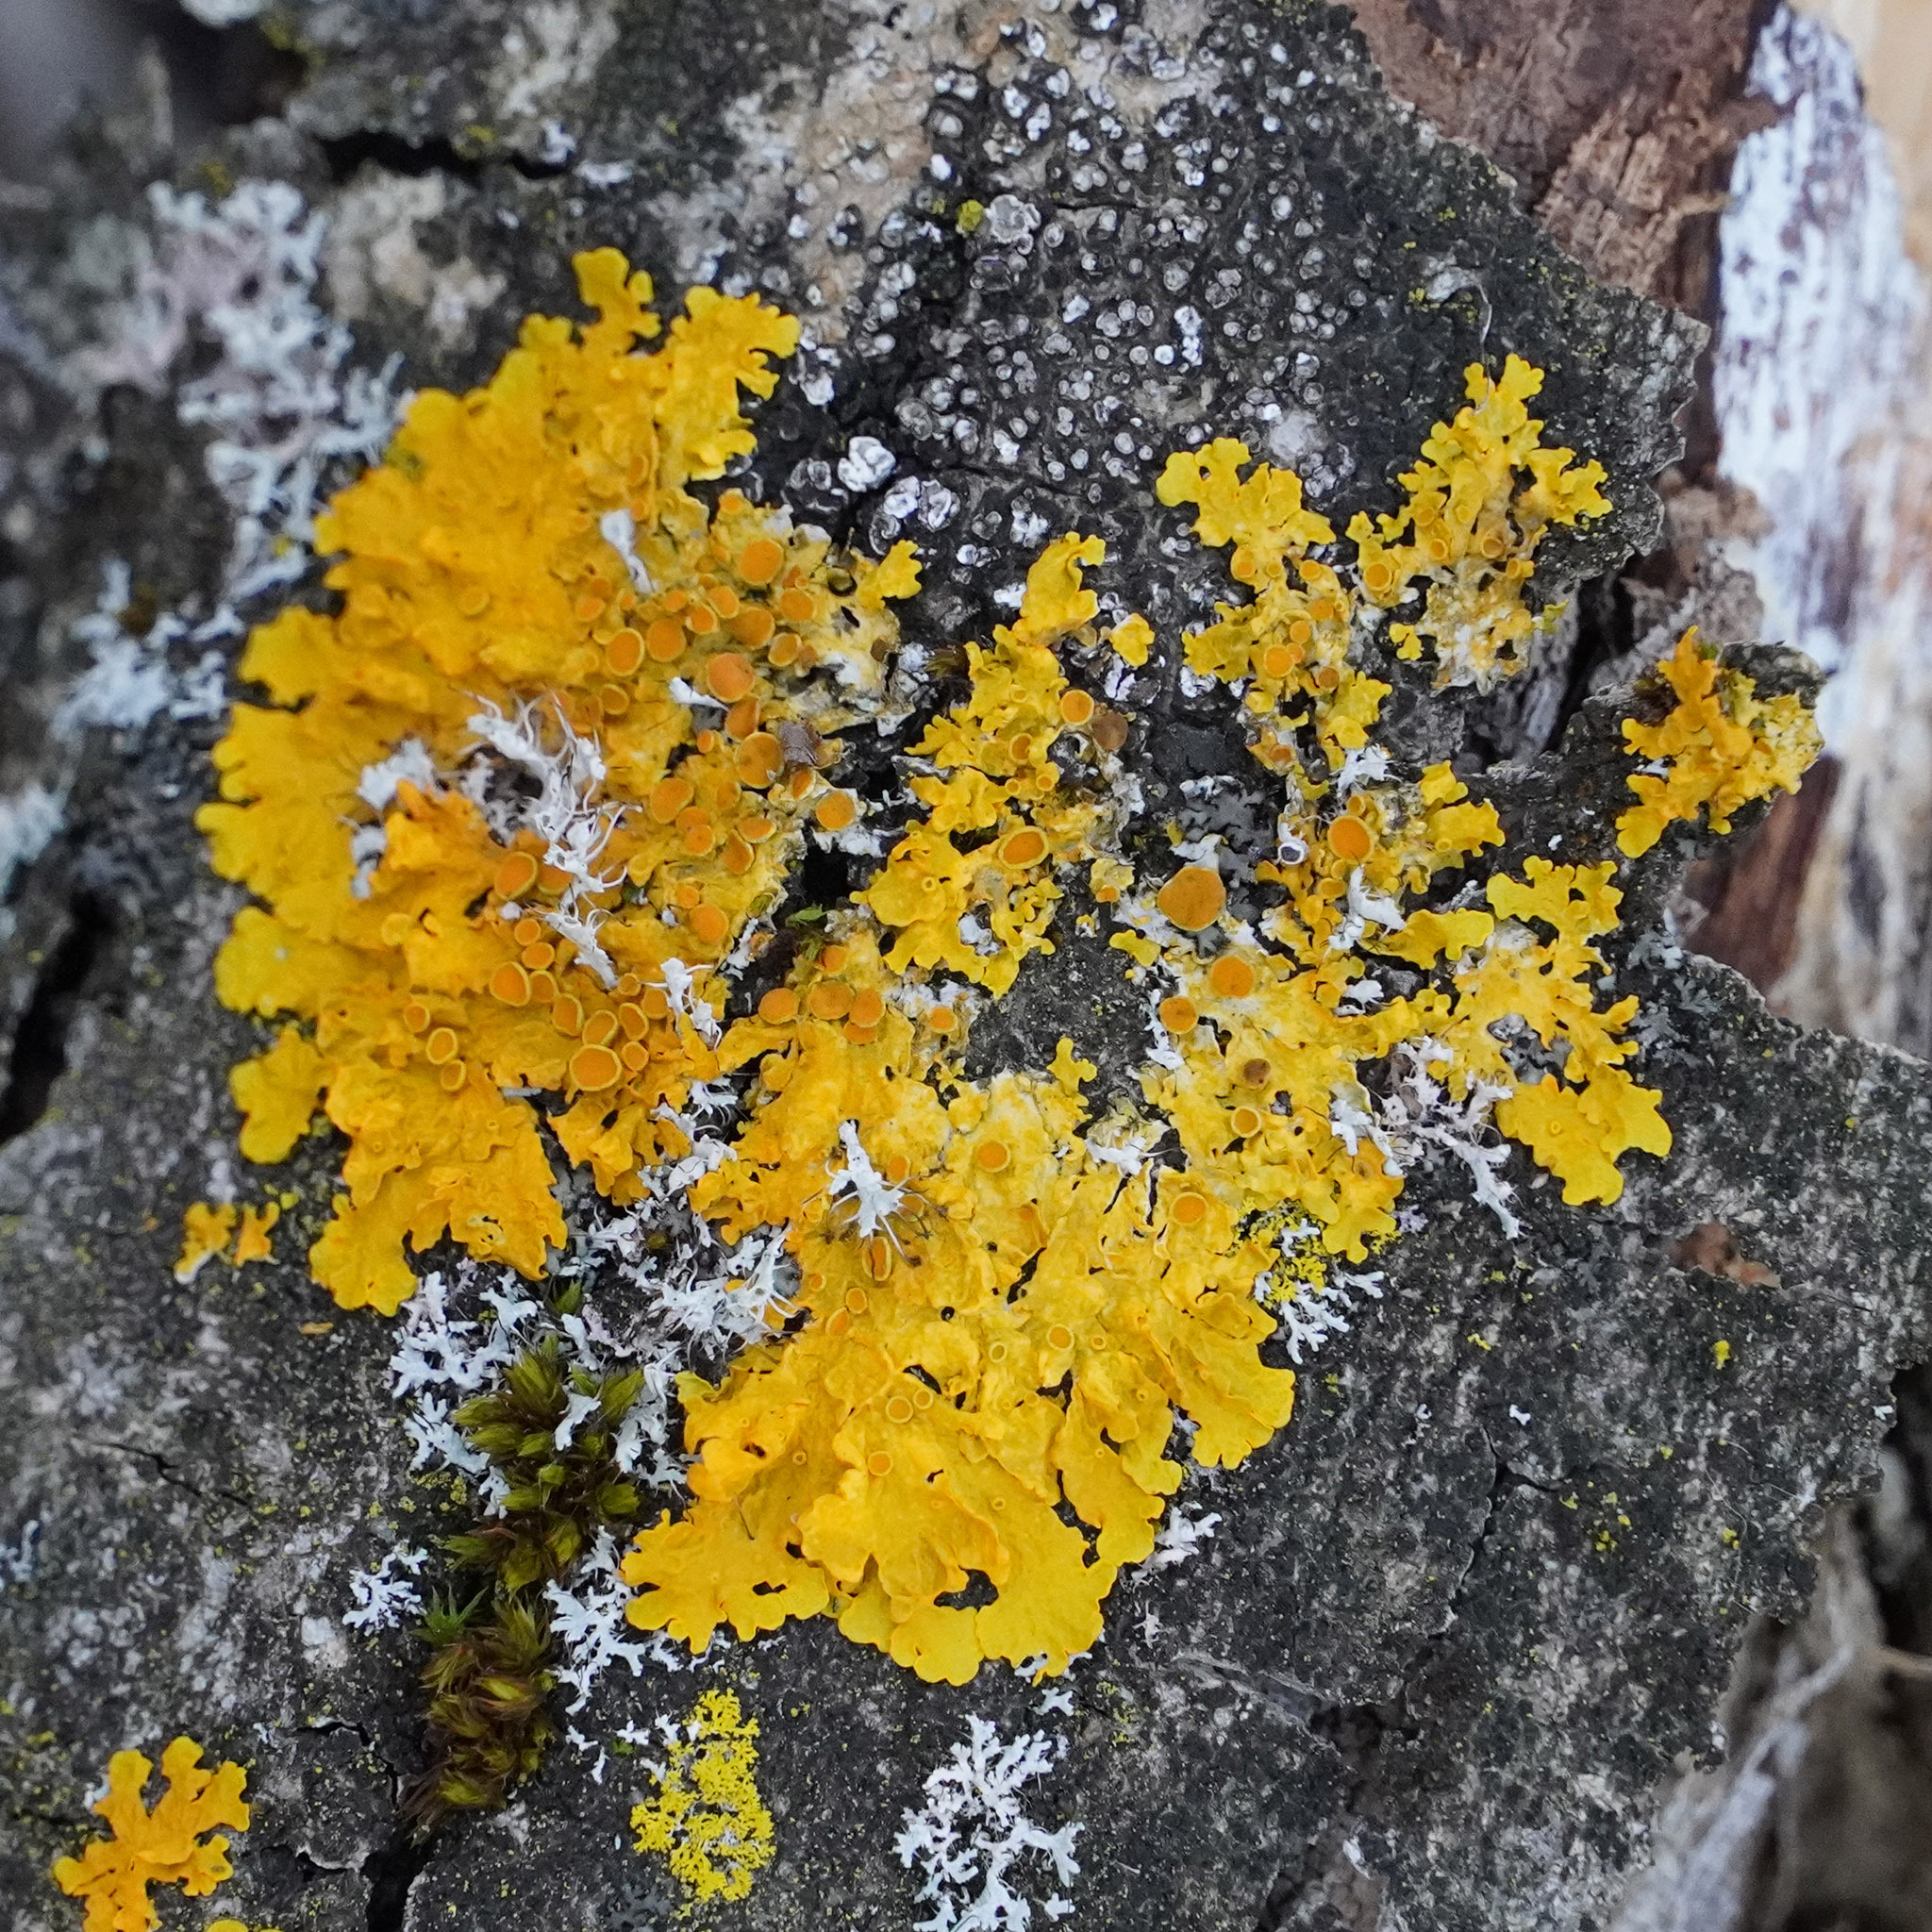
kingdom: Fungi
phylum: Ascomycota
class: Lecanoromycetes
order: Teloschistales
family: Teloschistaceae
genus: Xanthoria
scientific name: Xanthoria parietina
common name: Common orange lichen
